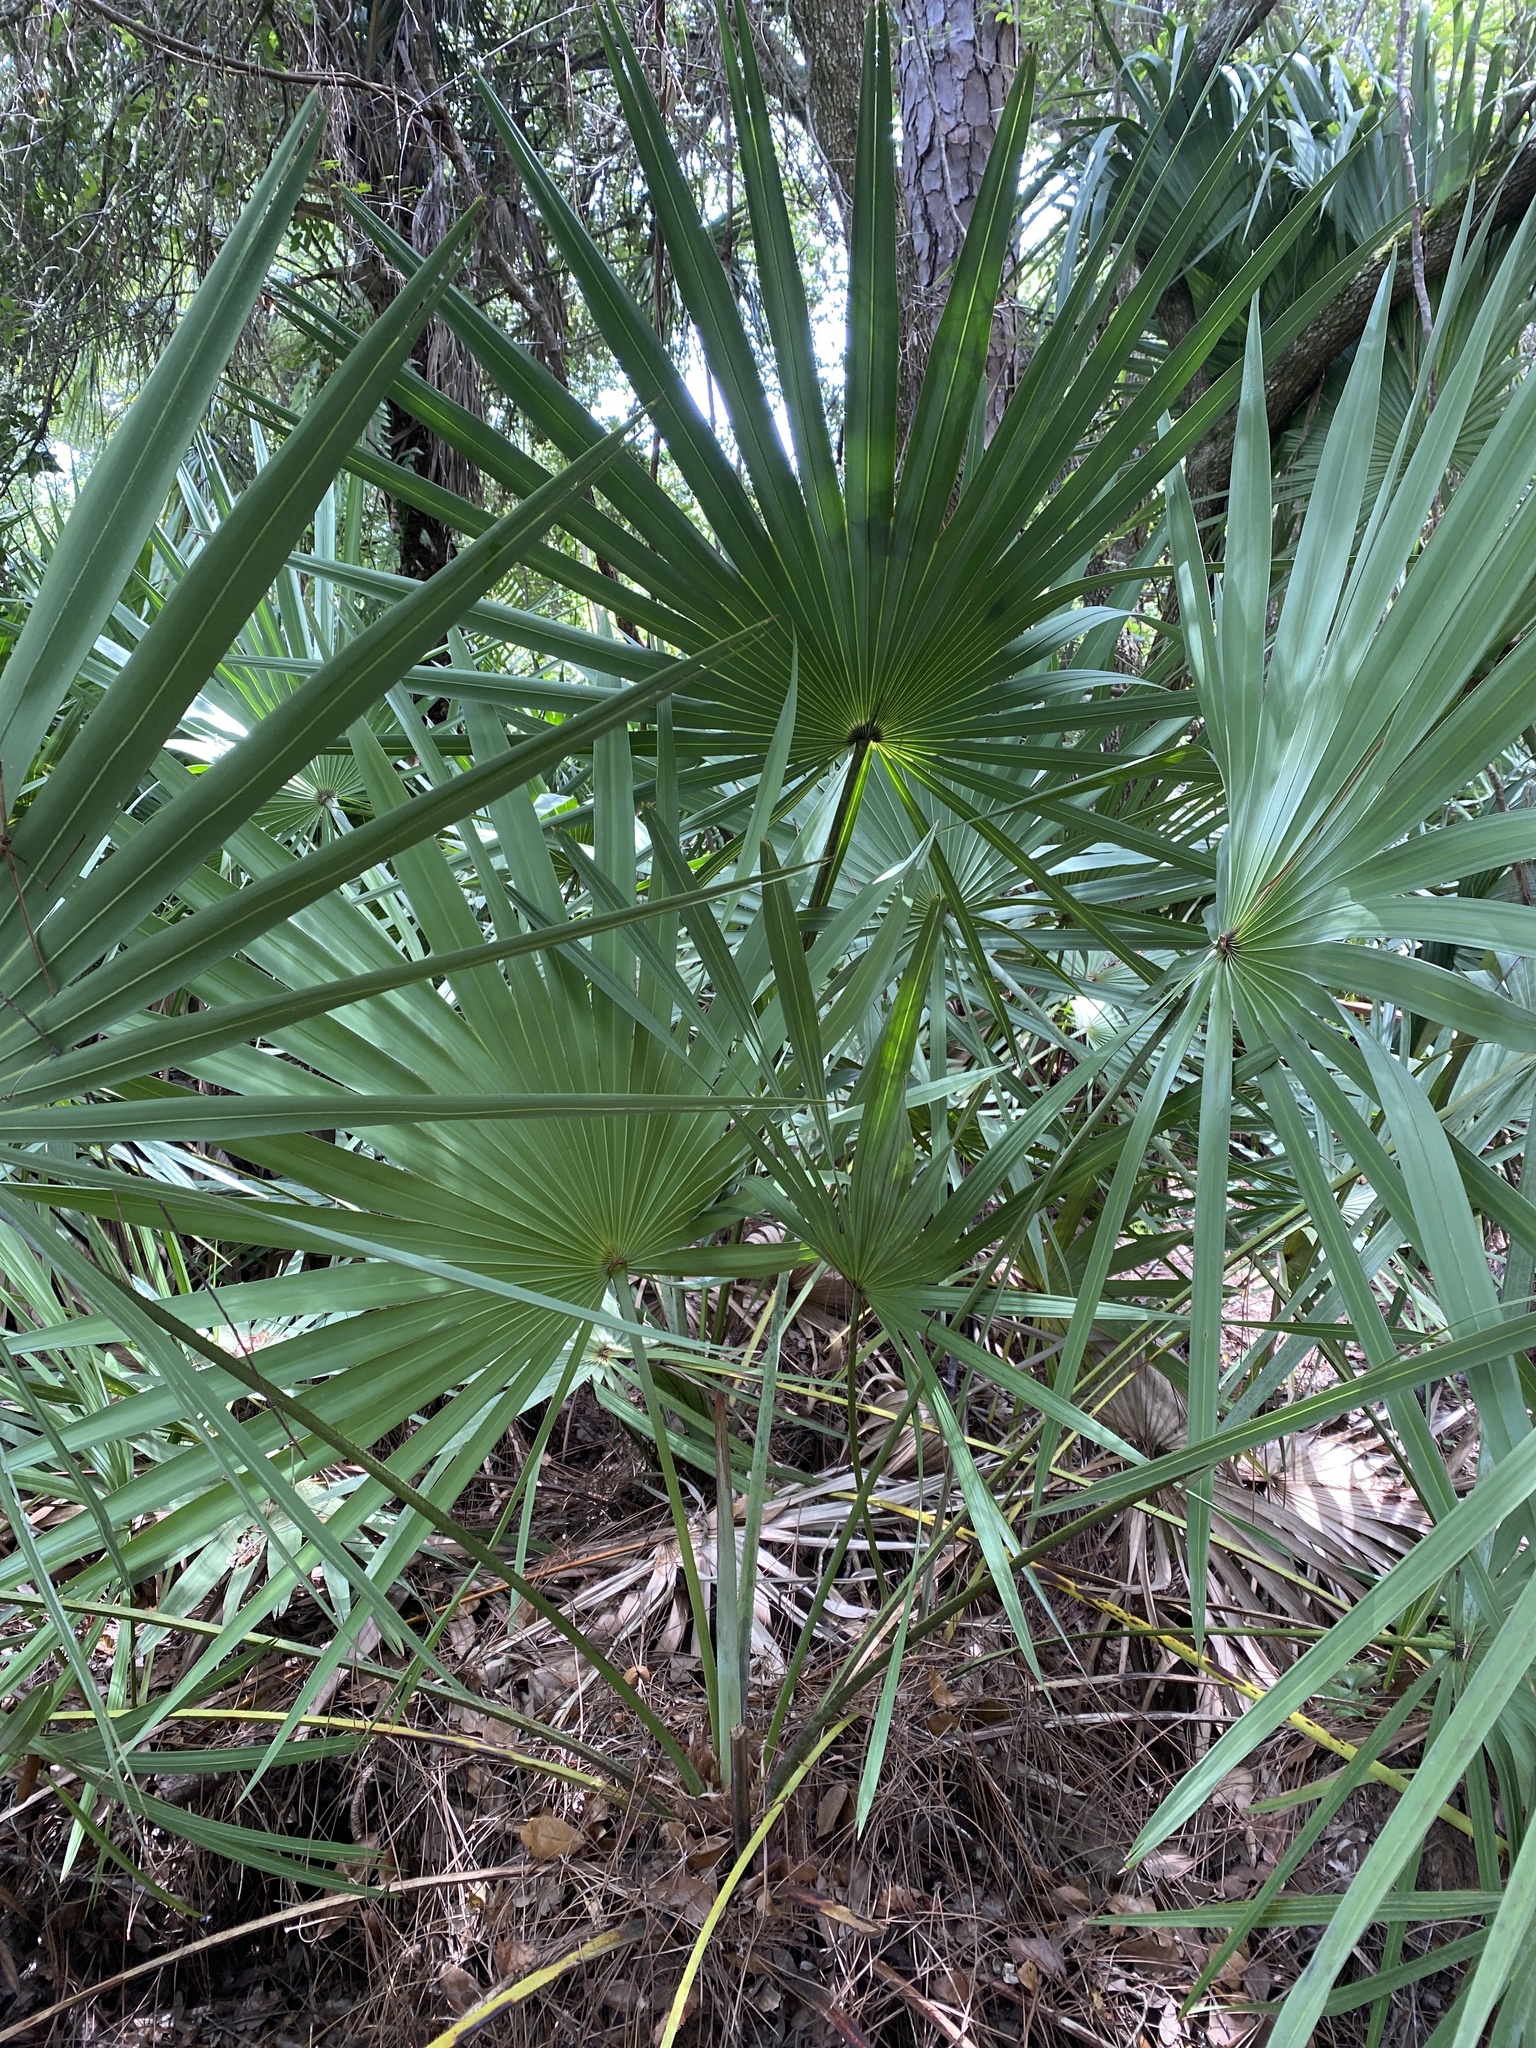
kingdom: Plantae
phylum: Tracheophyta
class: Liliopsida
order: Arecales
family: Arecaceae
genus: Serenoa
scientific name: Serenoa repens
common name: Saw-palmetto
